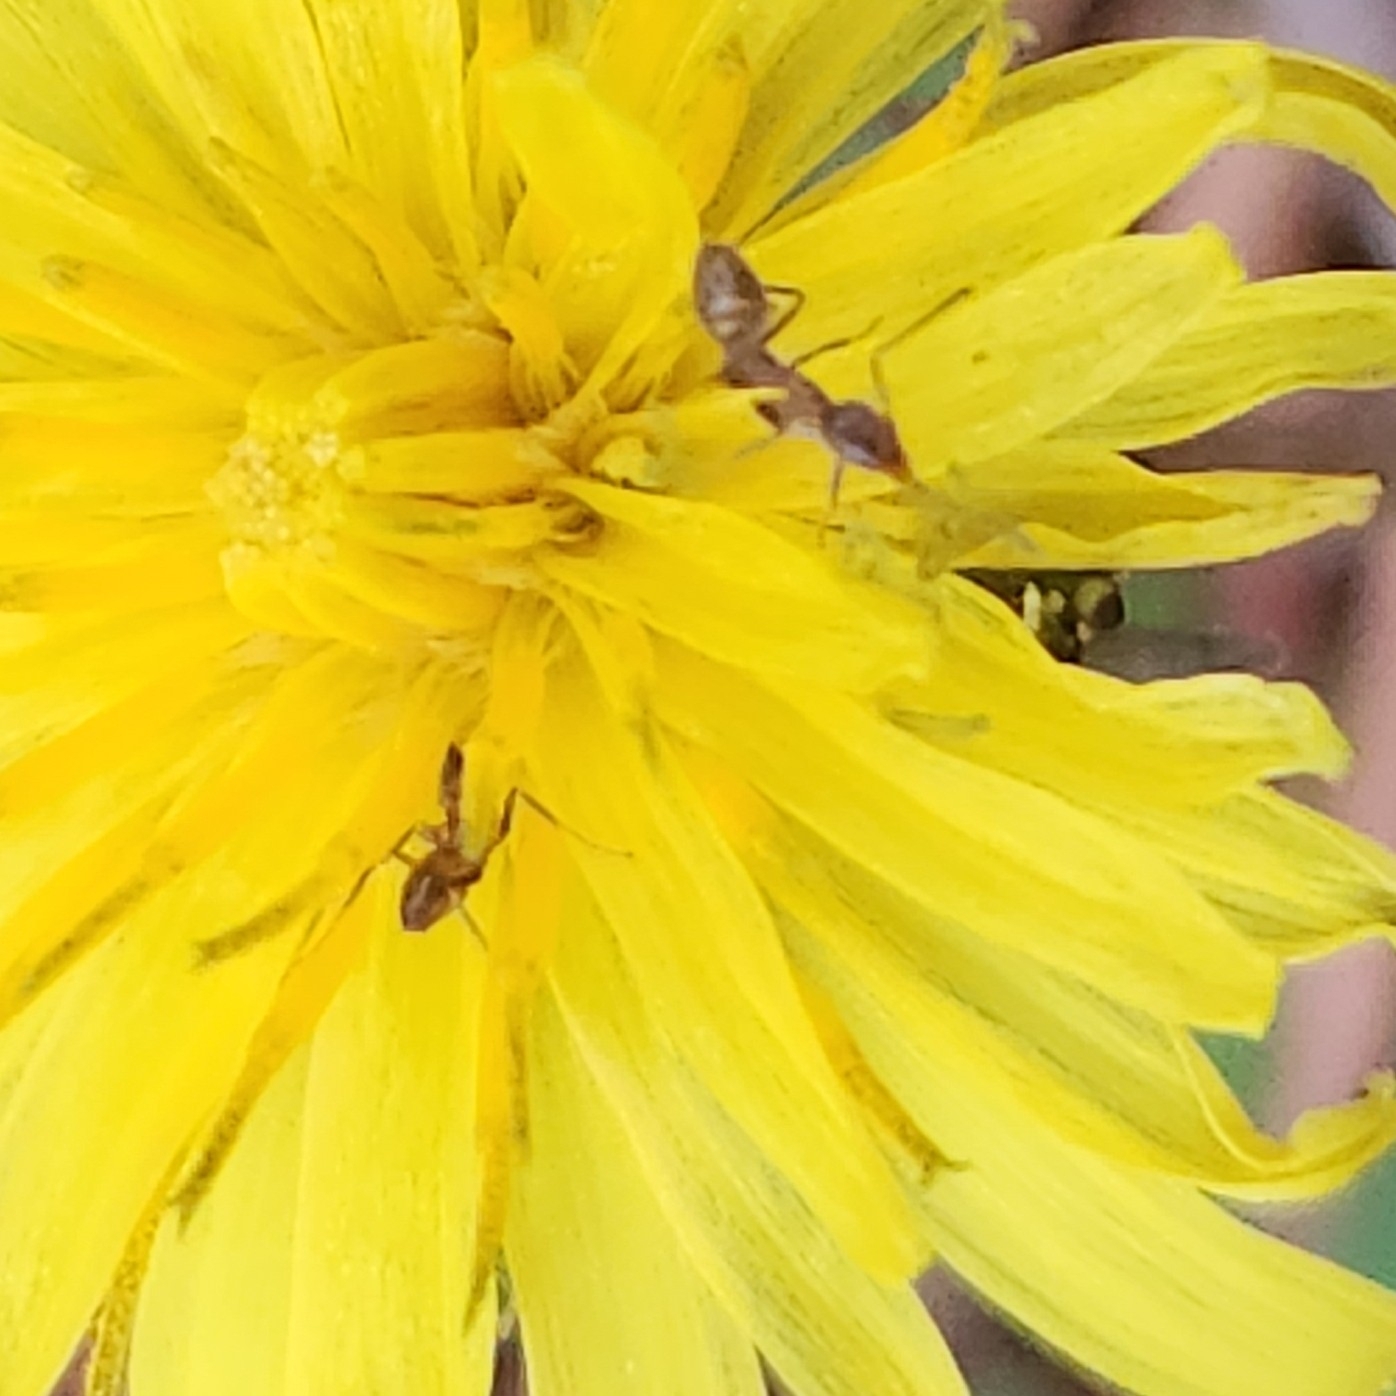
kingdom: Animalia
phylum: Arthropoda
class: Insecta
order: Hymenoptera
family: Formicidae
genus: Linepithema
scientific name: Linepithema humile
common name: Argentine ant
